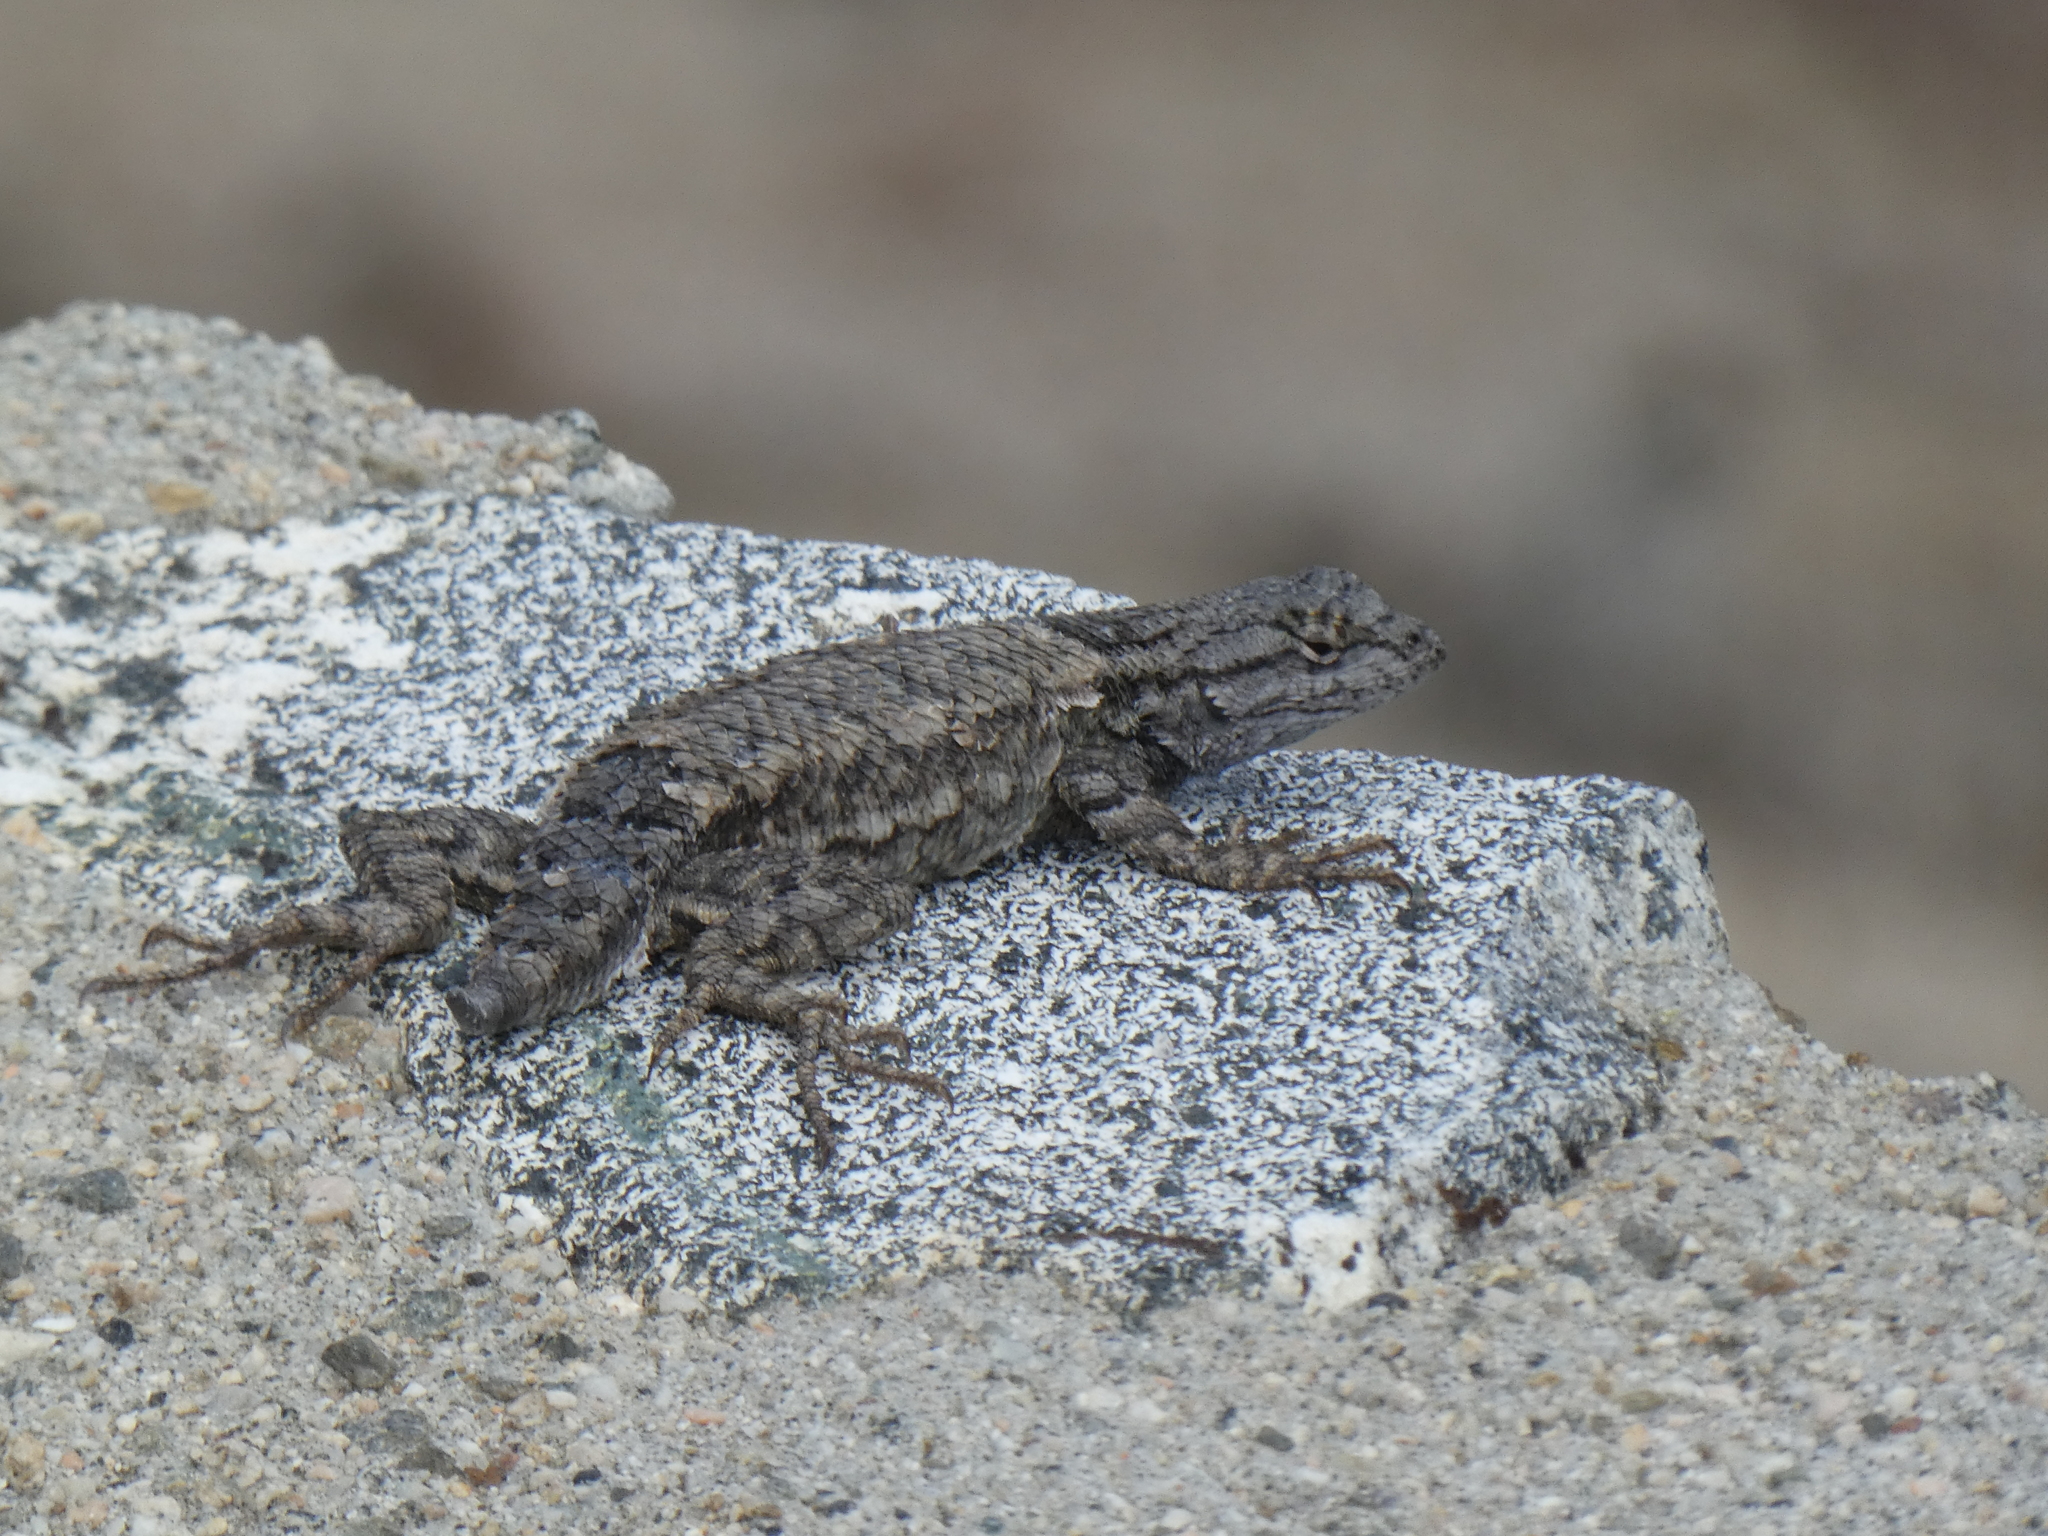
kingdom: Animalia
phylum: Chordata
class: Squamata
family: Phrynosomatidae
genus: Sceloporus
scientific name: Sceloporus occidentalis
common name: Western fence lizard
